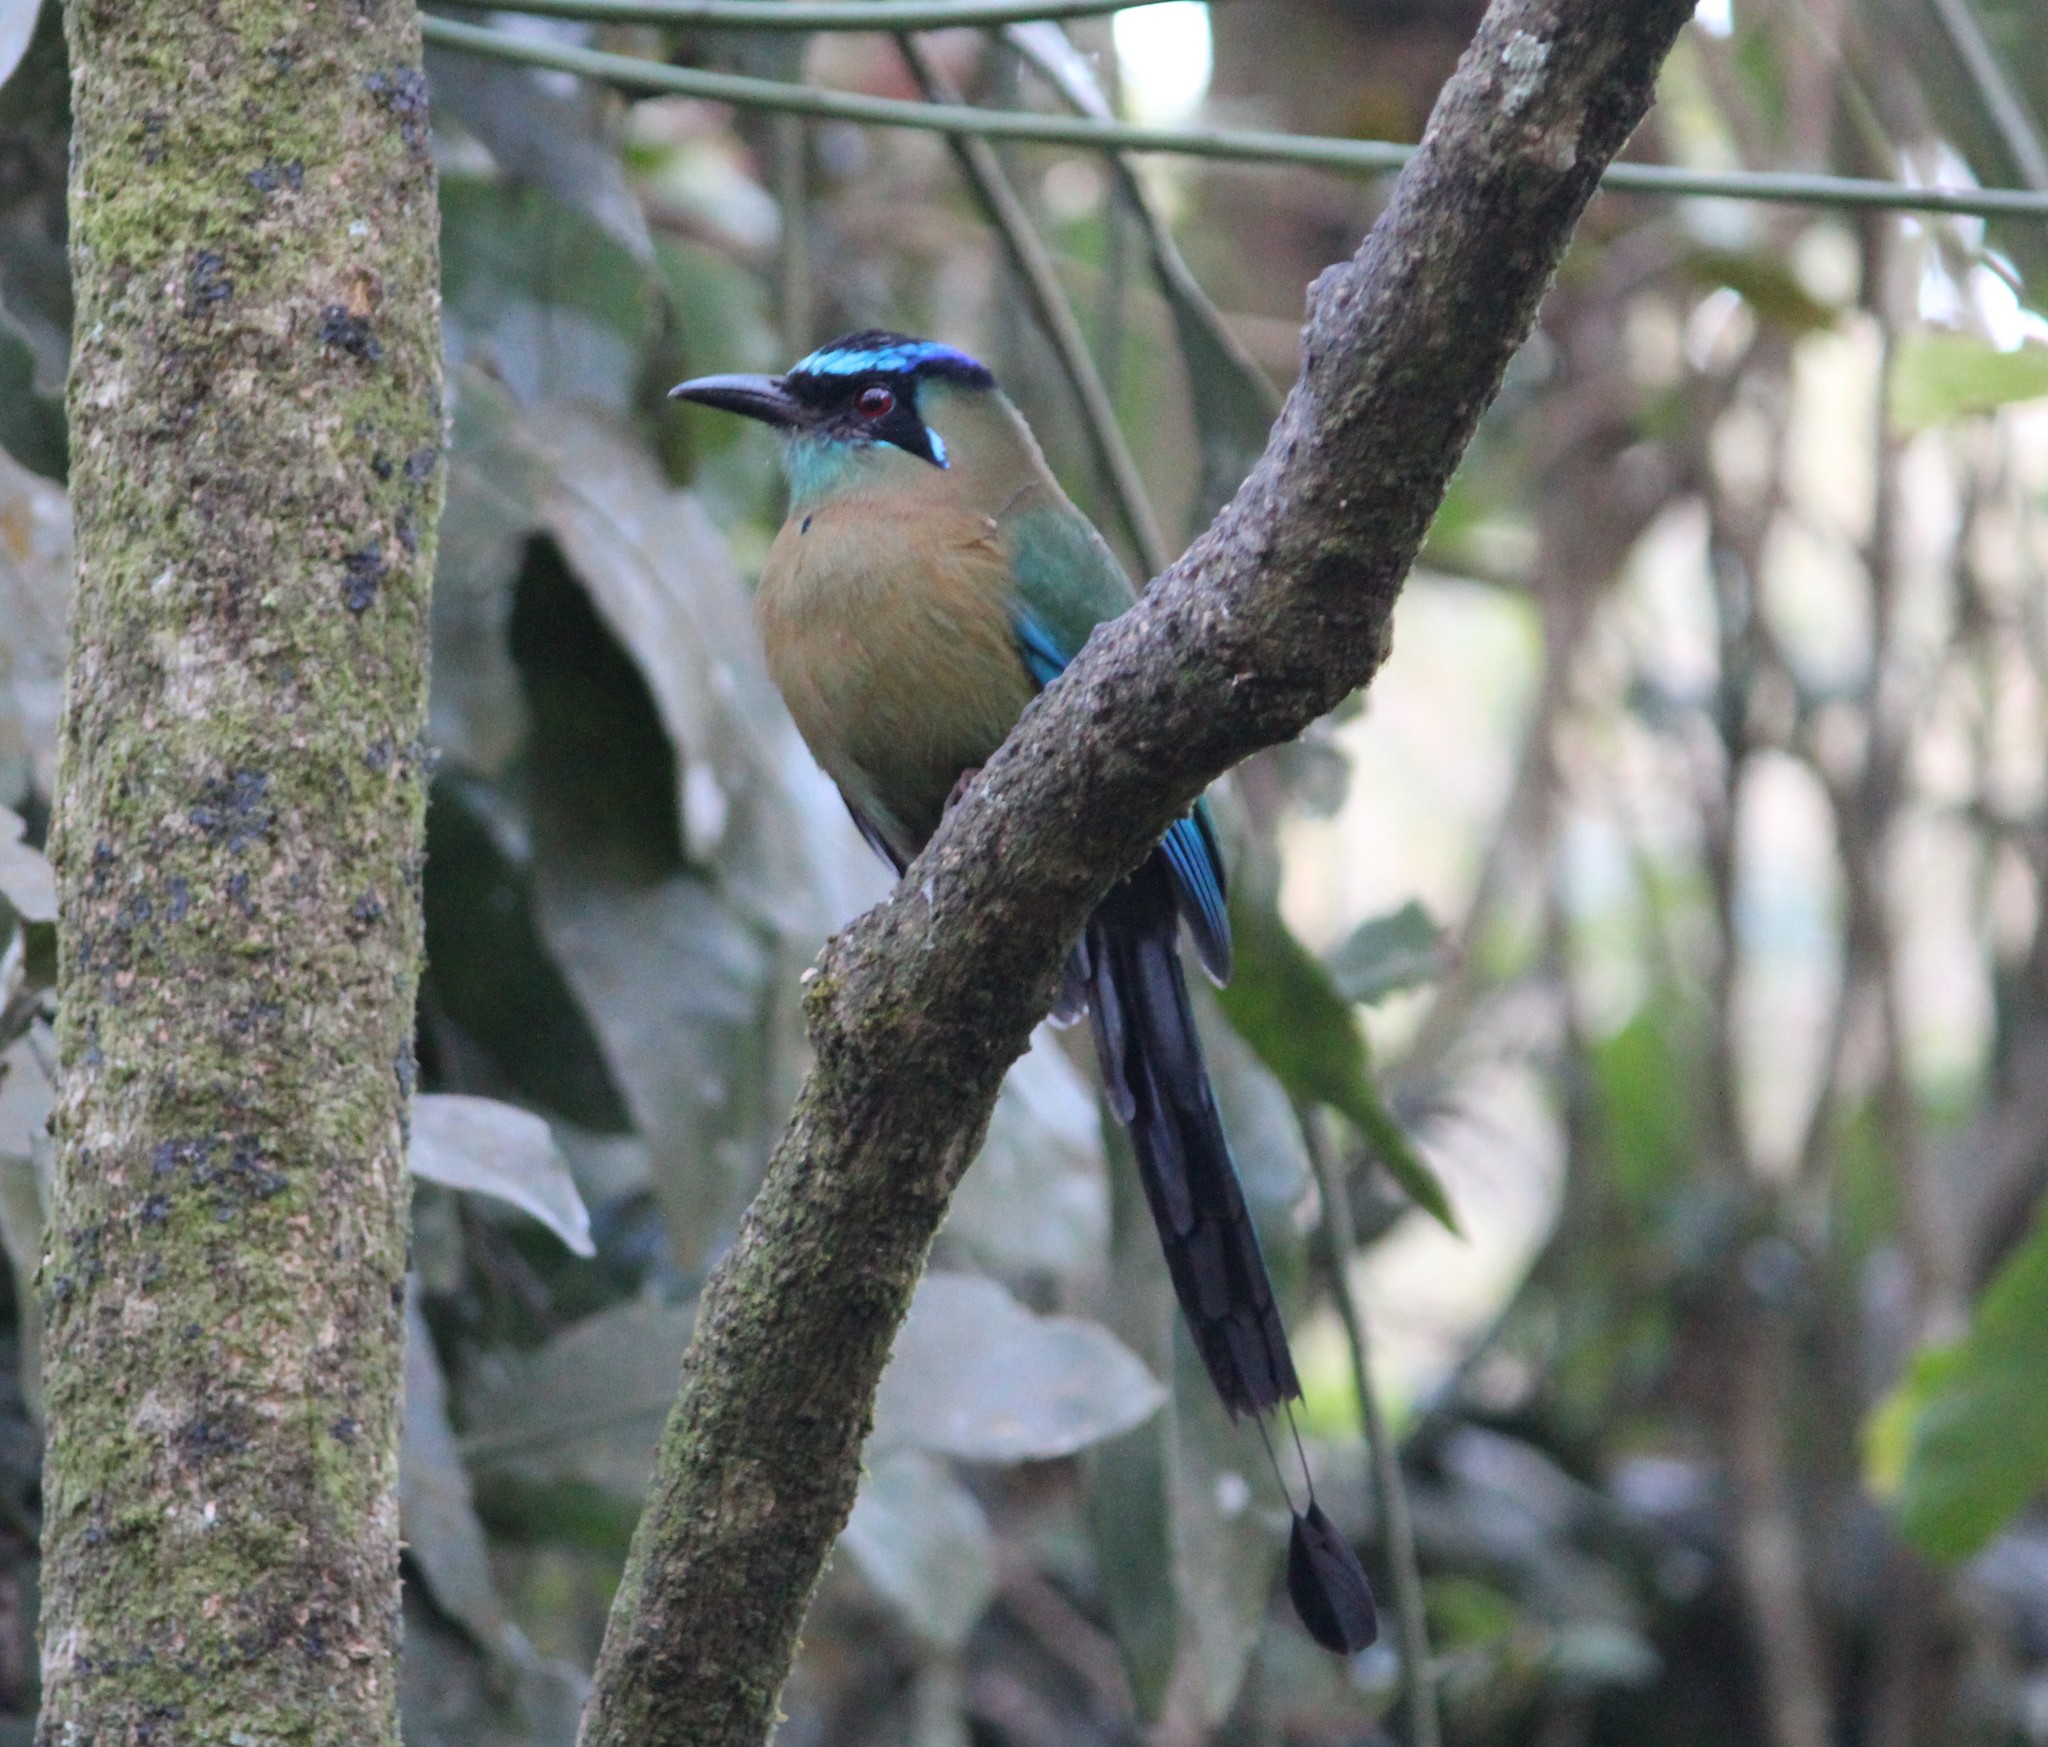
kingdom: Animalia
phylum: Chordata
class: Aves
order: Coraciiformes
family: Momotidae
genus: Momotus
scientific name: Momotus lessonii
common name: Lesson's motmot
